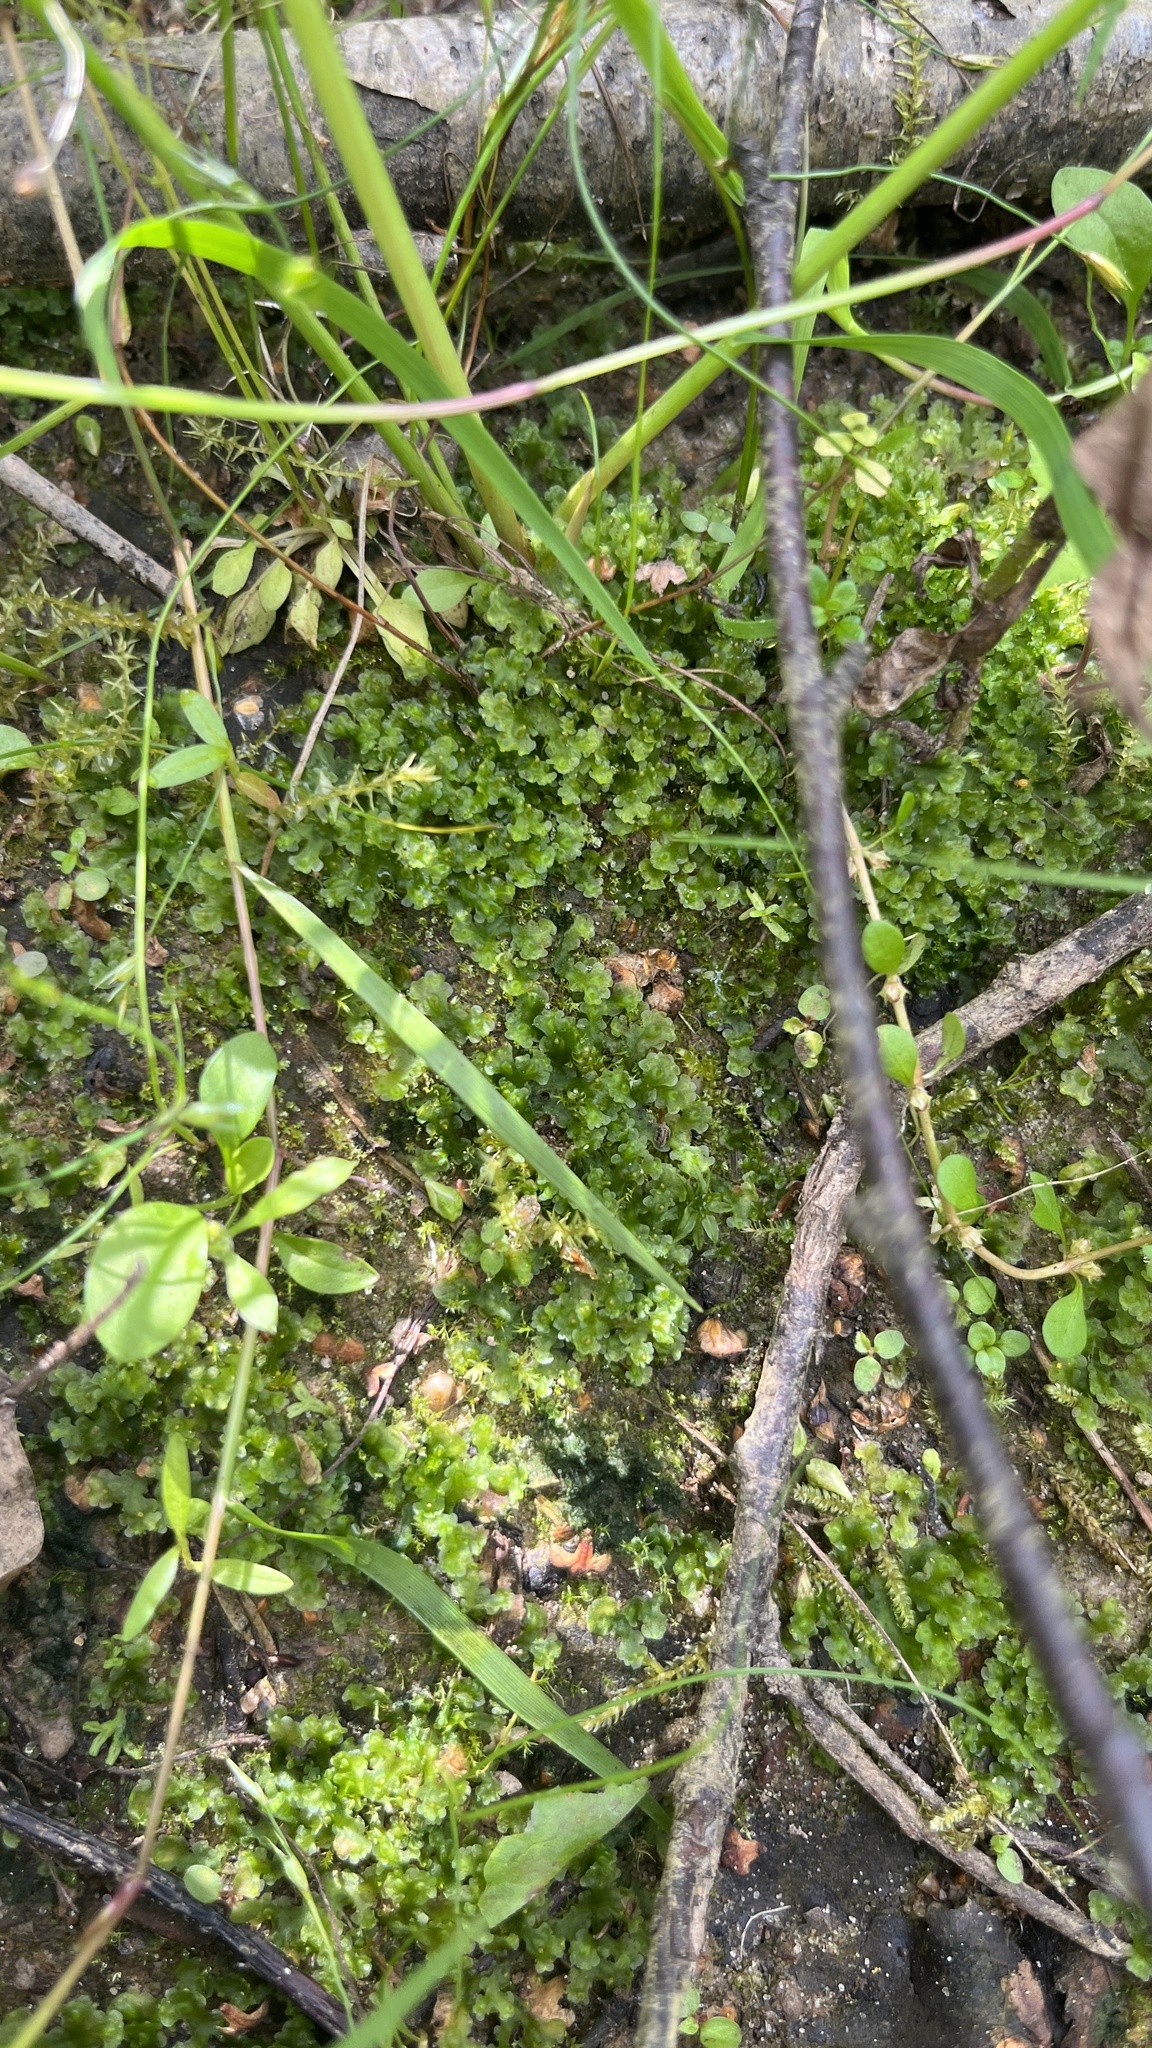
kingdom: Plantae
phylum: Marchantiophyta
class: Marchantiopsida
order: Blasiales
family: Blasiaceae
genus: Blasia
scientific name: Blasia pusilla
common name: Common kettlewort
